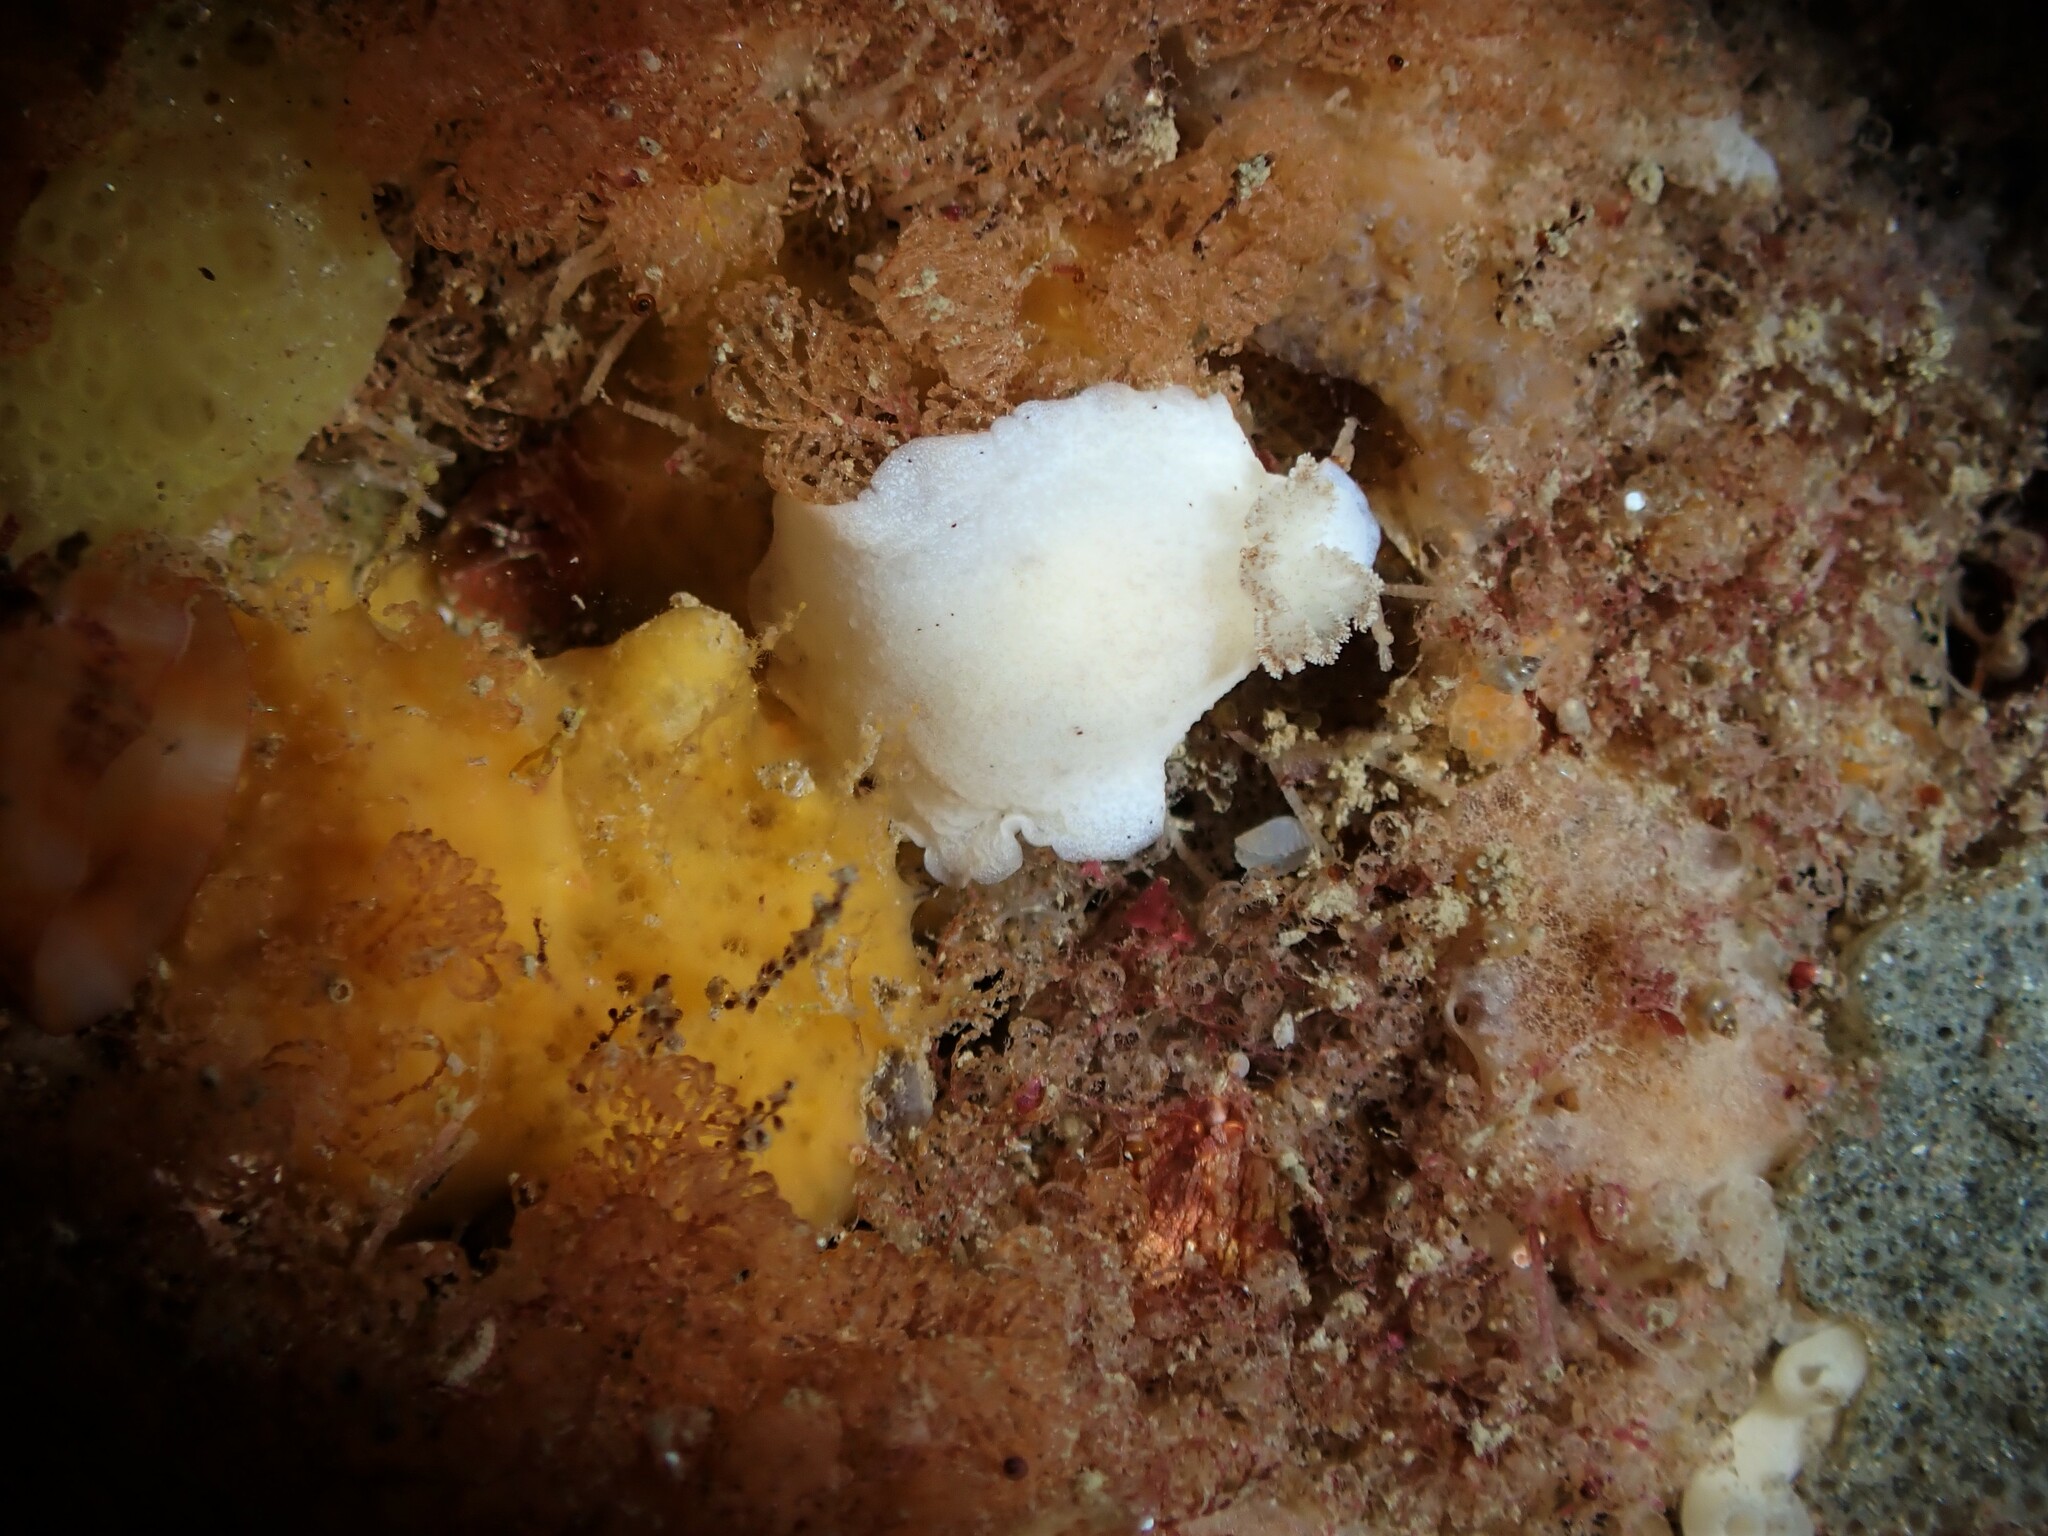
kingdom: Animalia
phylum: Mollusca
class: Gastropoda
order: Nudibranchia
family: Discodorididae
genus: Paradoris
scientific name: Paradoris dubia
